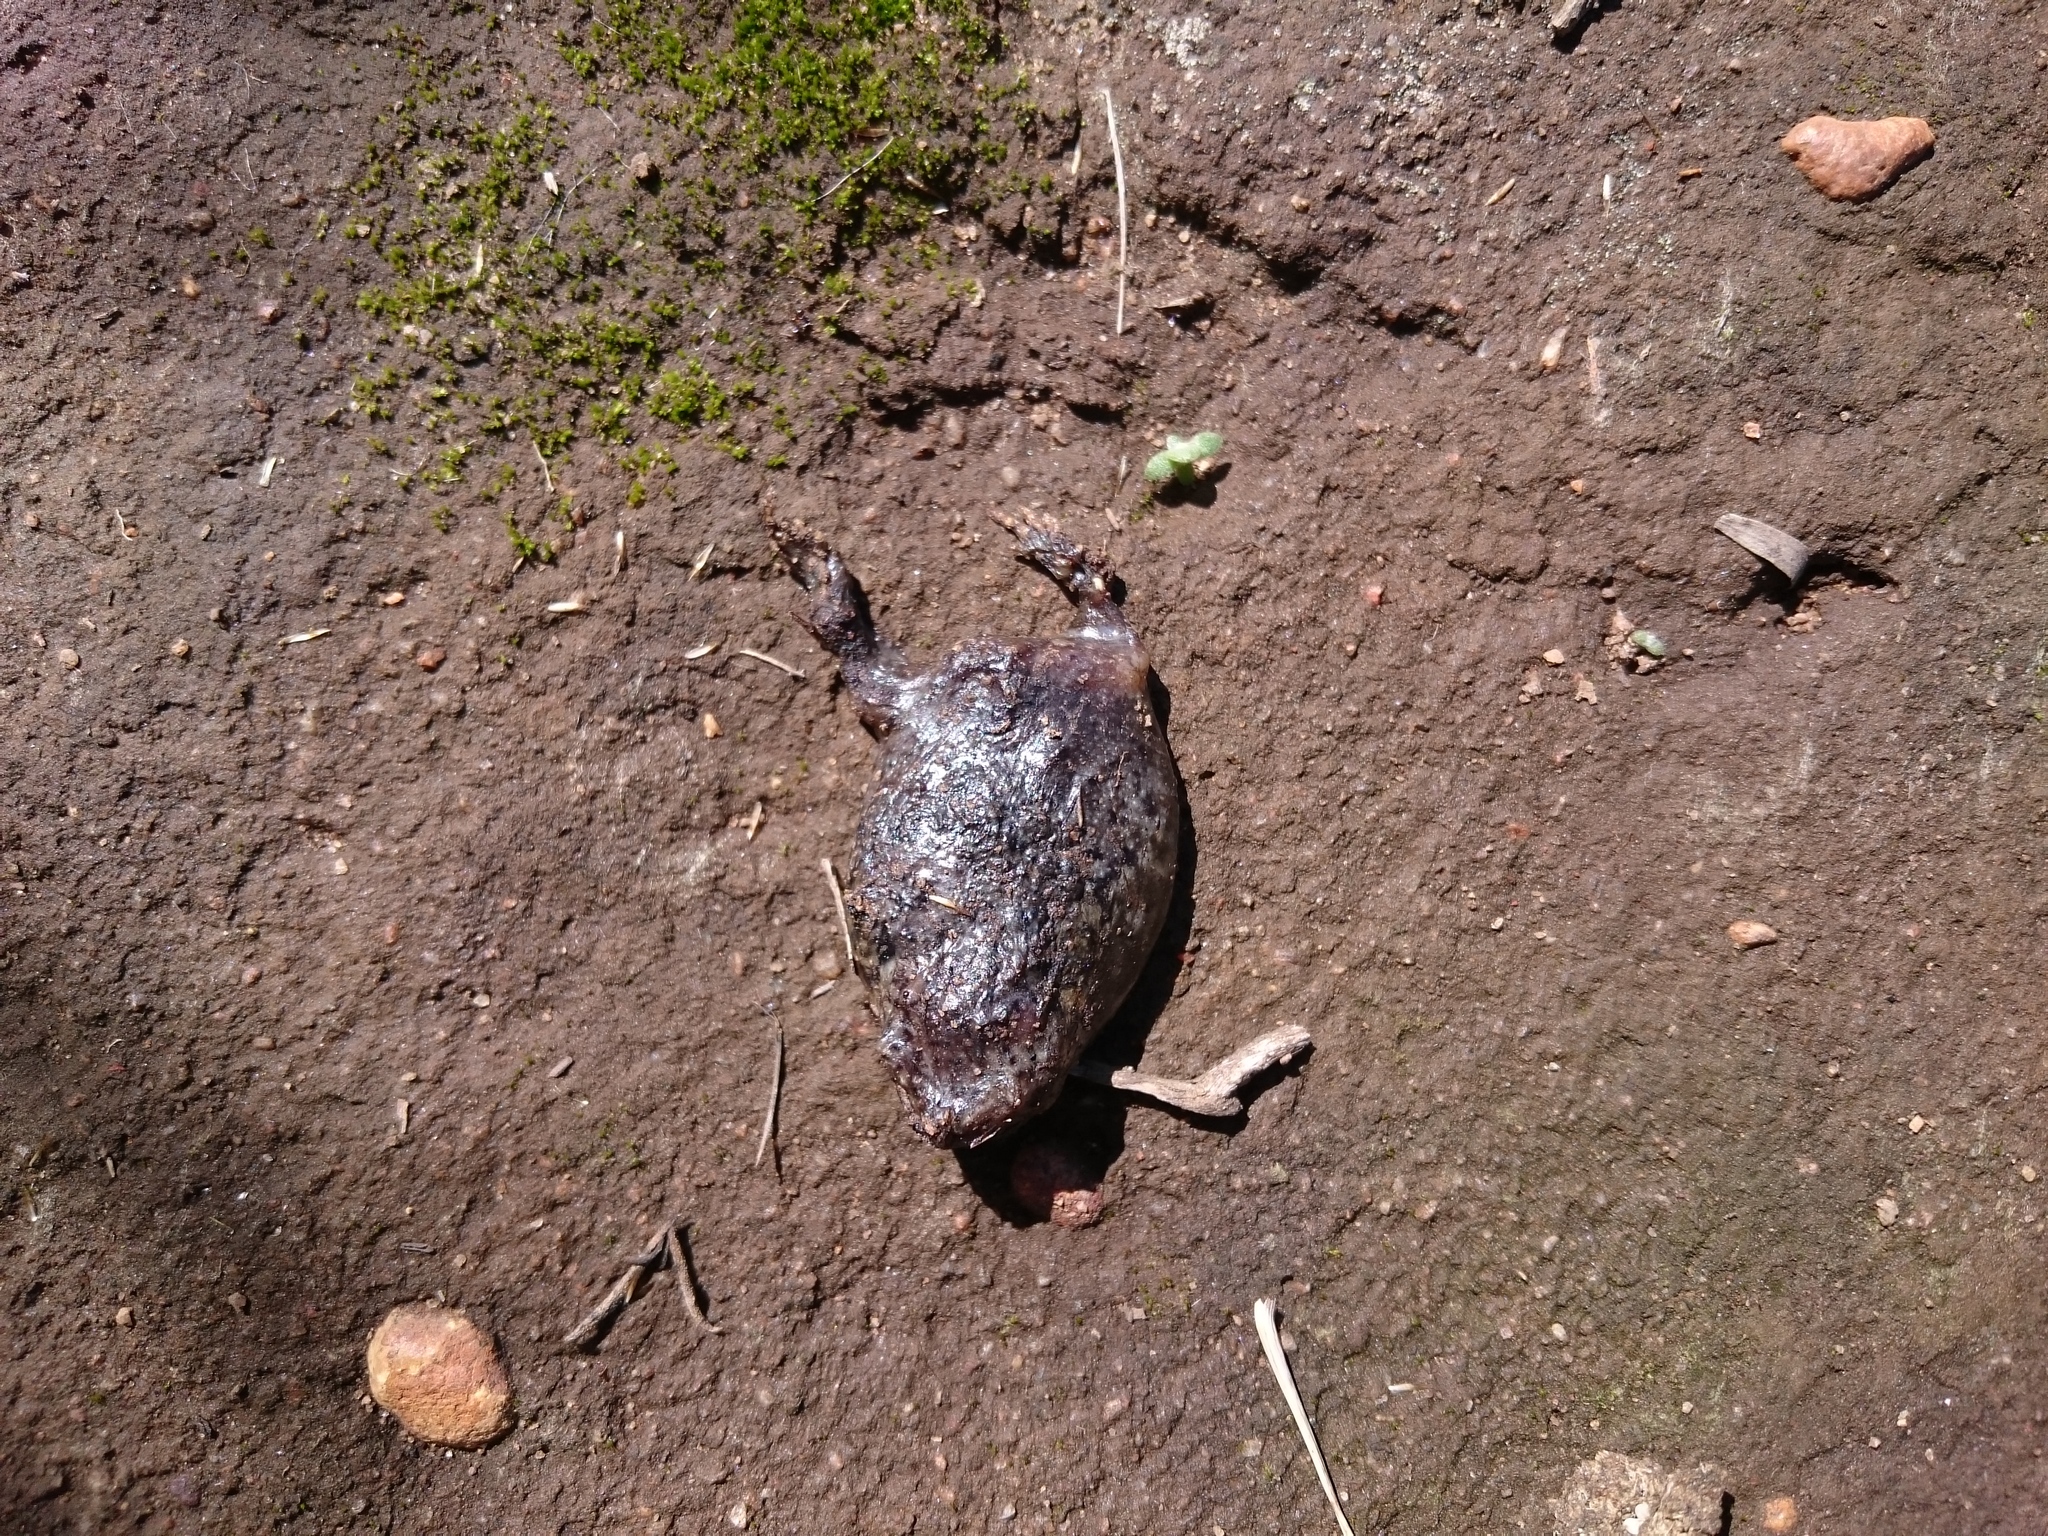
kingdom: Animalia
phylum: Chordata
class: Amphibia
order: Anura
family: Brevicipitidae
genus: Breviceps
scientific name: Breviceps montanus
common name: Mountain rain frog
